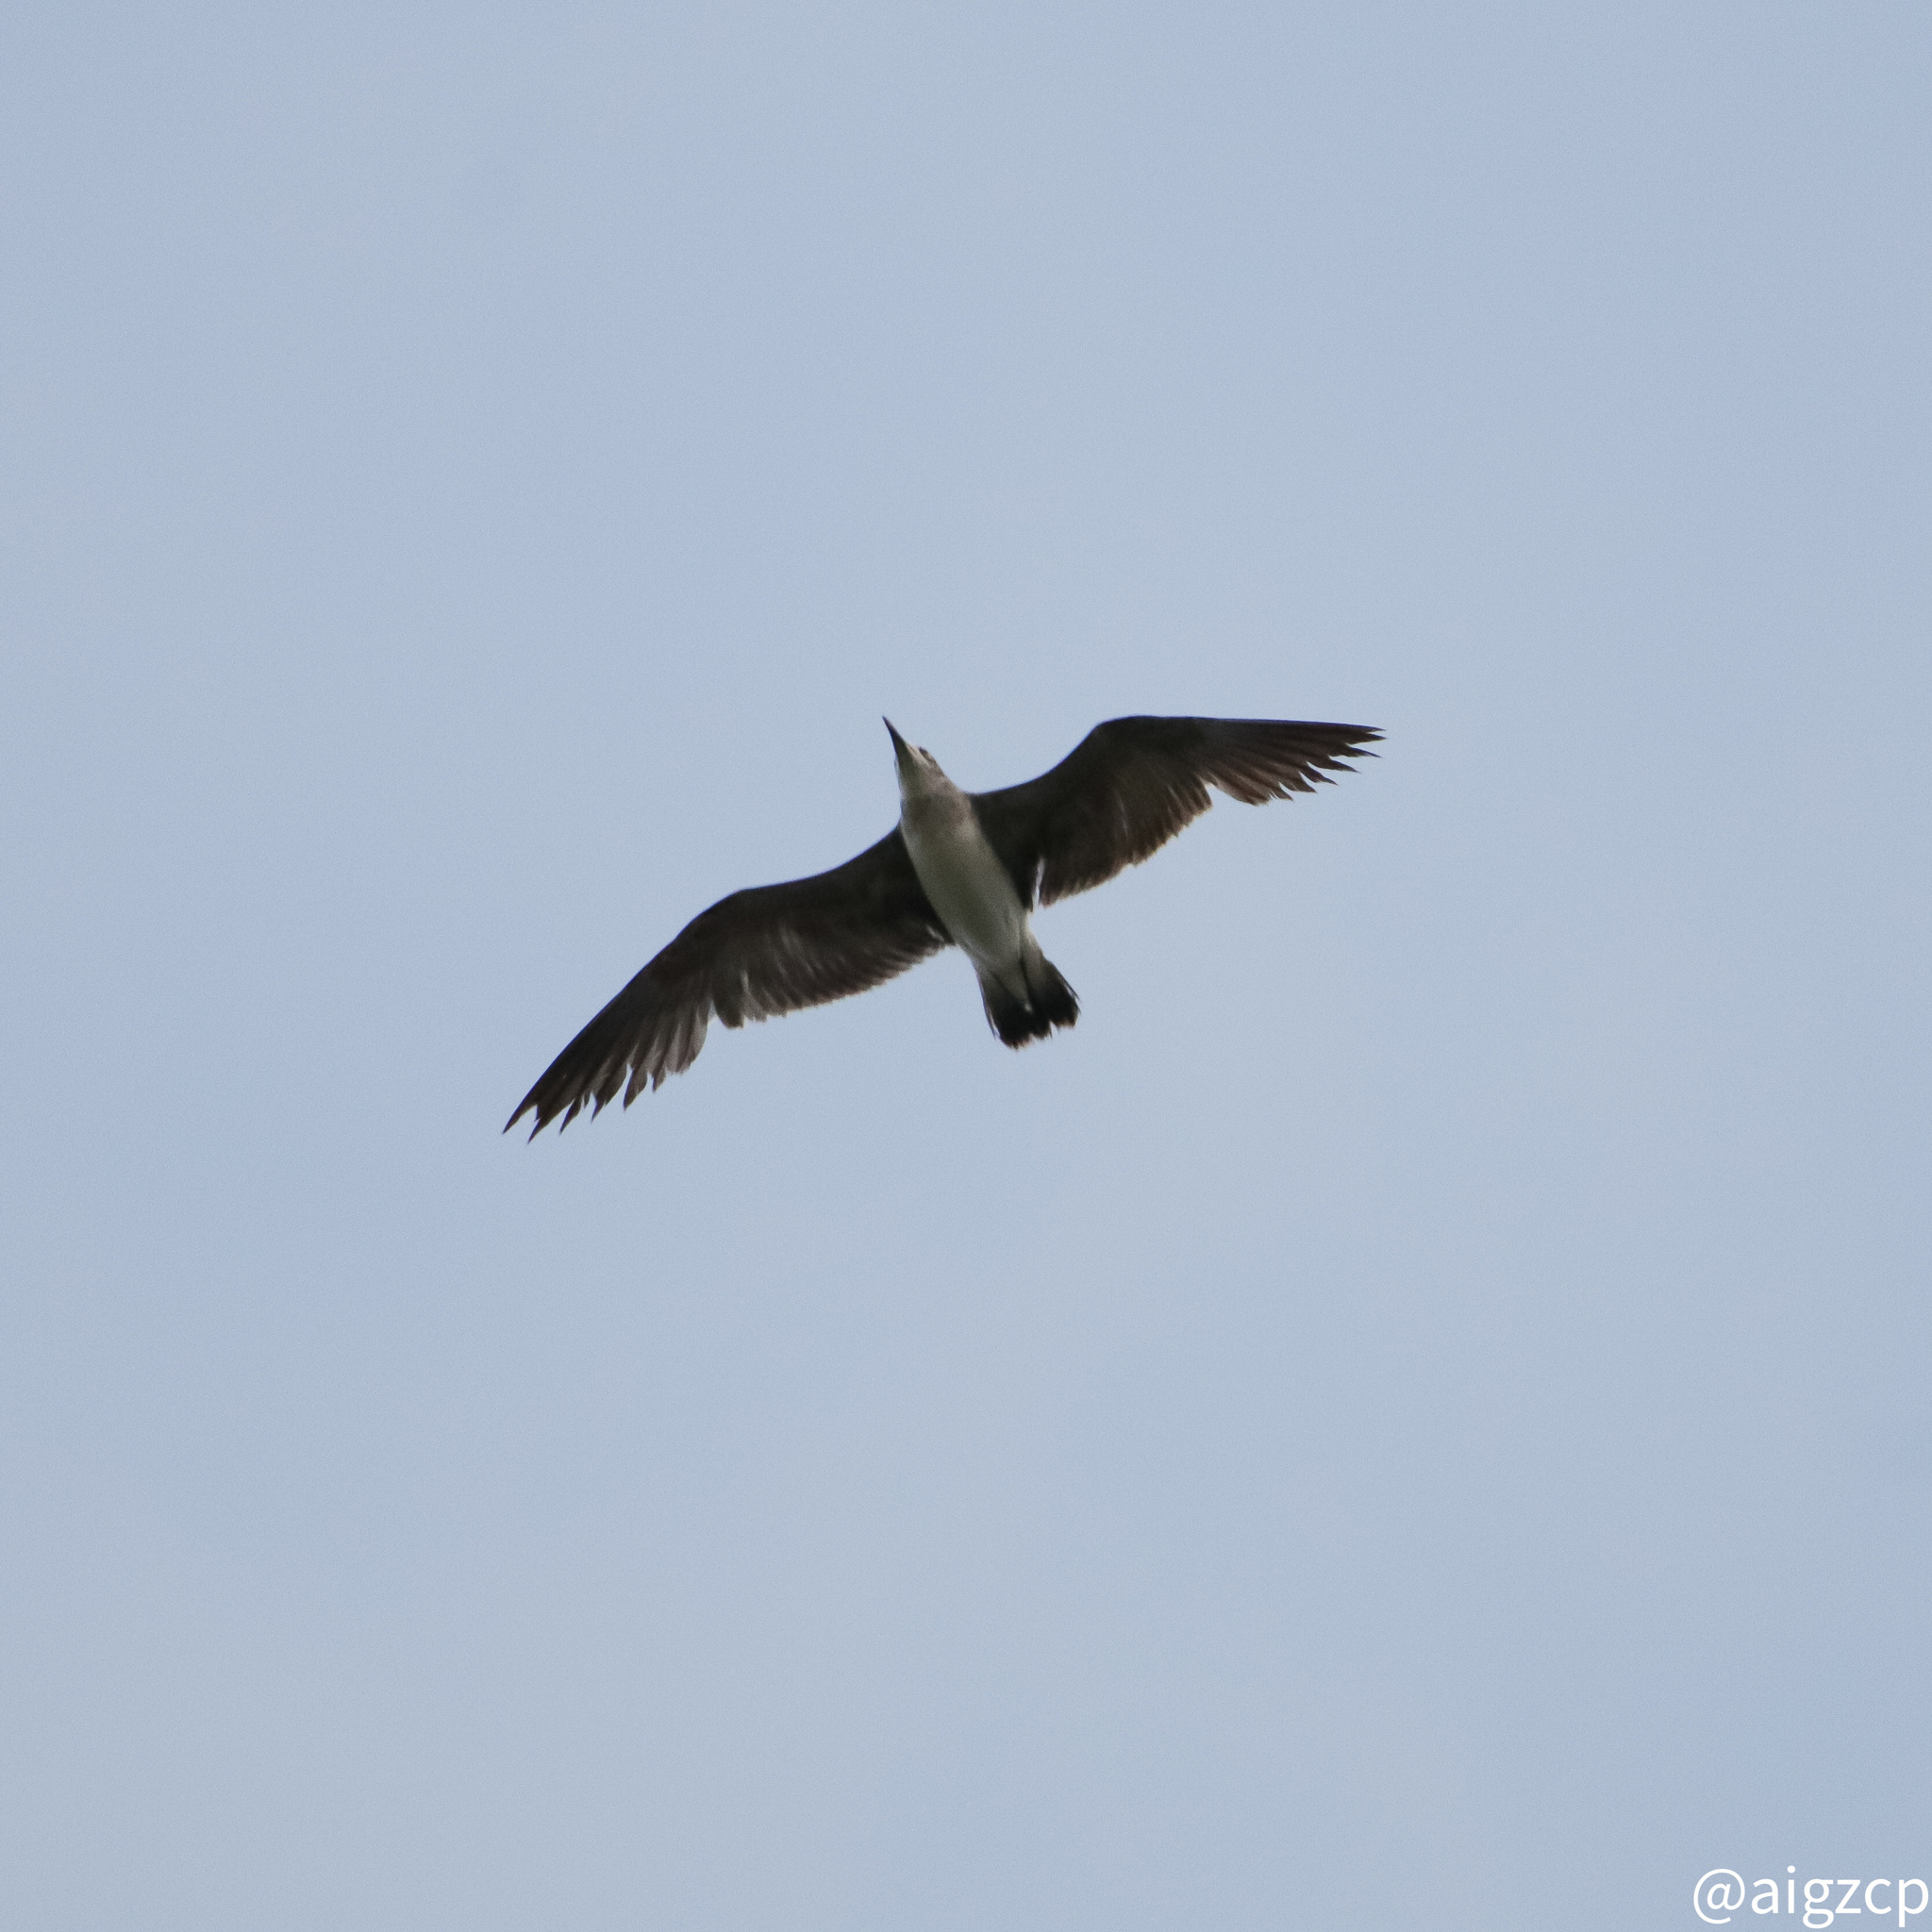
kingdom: Animalia
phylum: Chordata
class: Aves
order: Charadriiformes
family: Laridae
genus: Leucophaeus
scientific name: Leucophaeus atricilla
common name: Laughing gull
